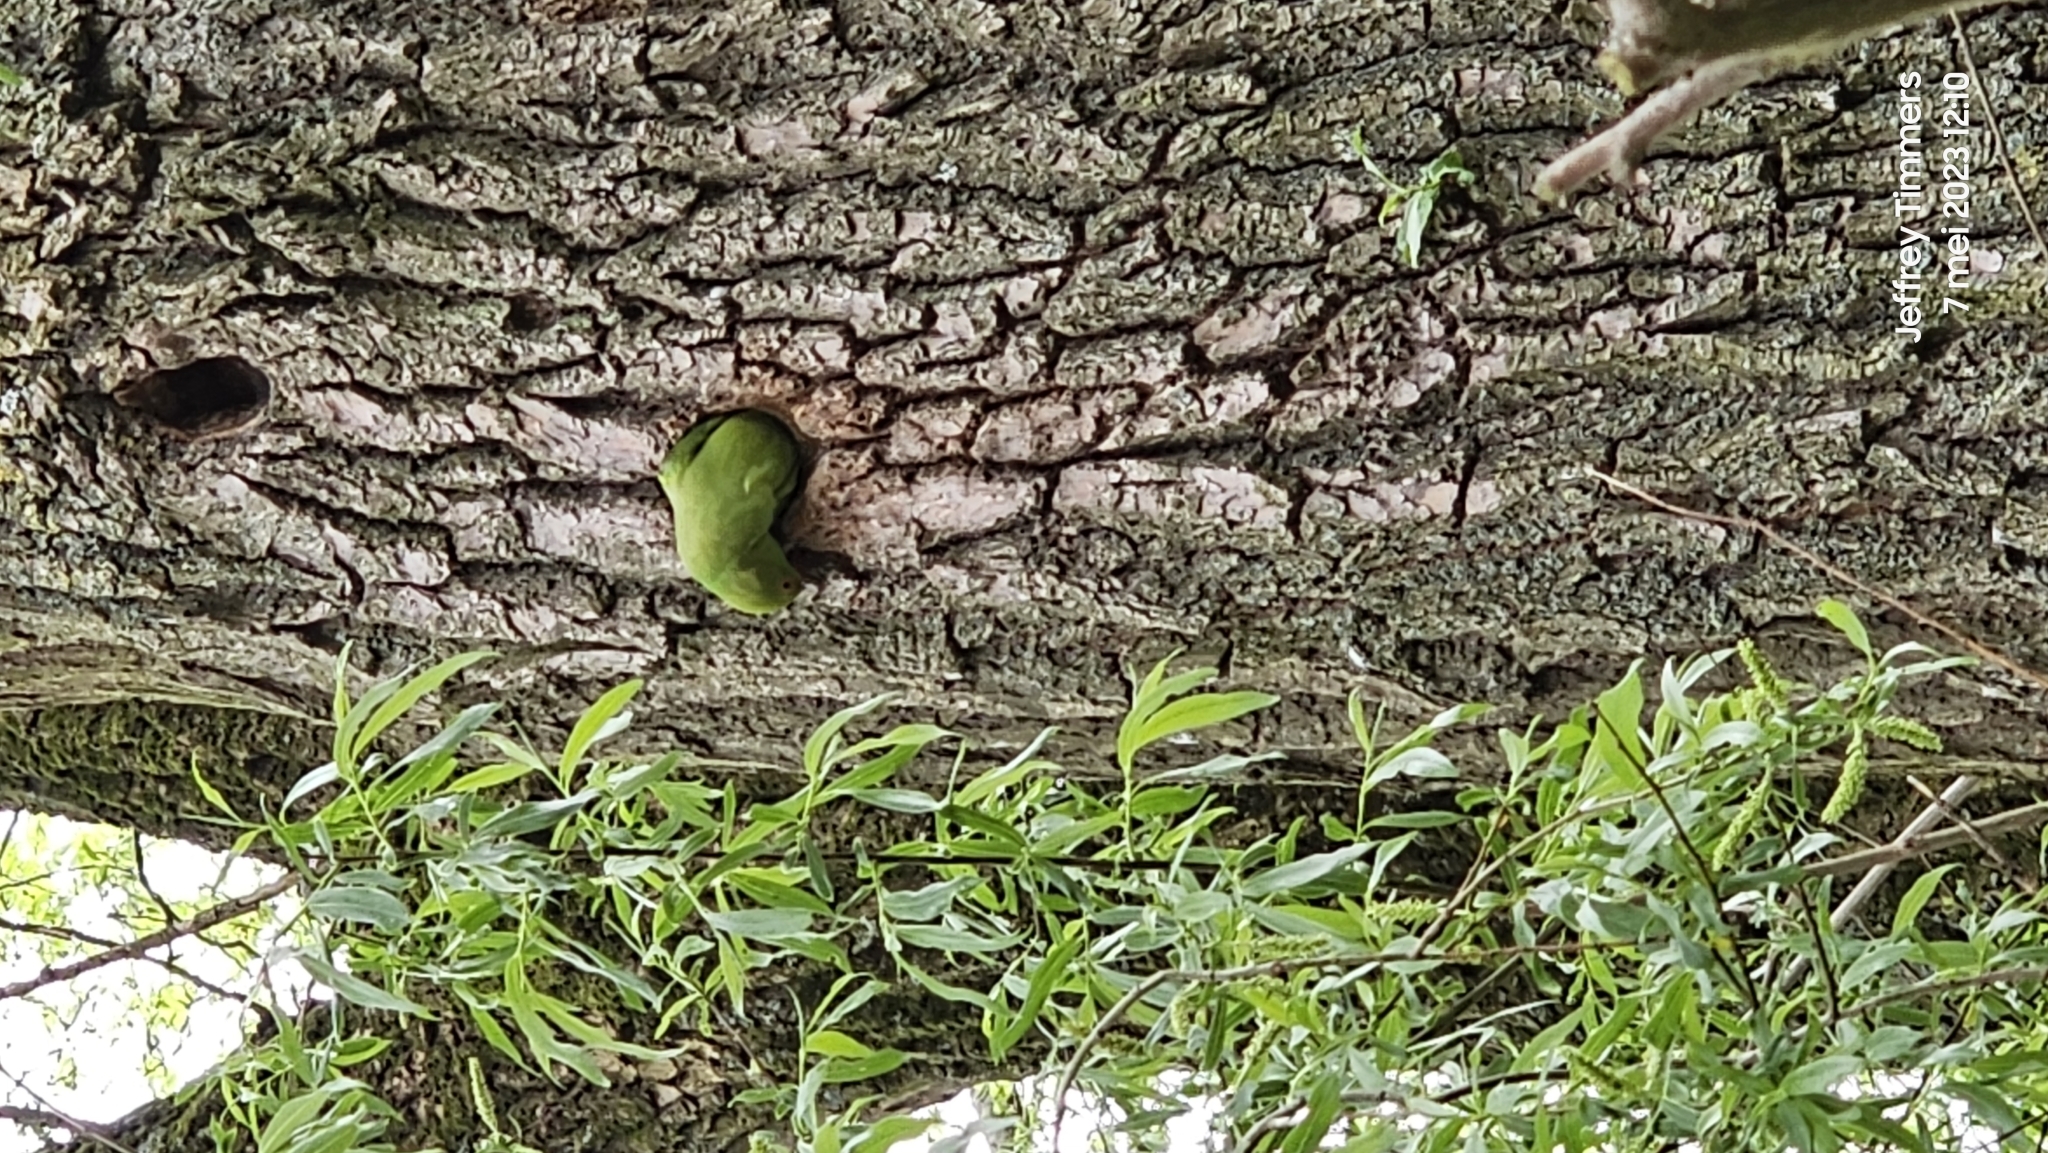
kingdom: Animalia
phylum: Chordata
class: Aves
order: Psittaciformes
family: Psittacidae
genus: Psittacula
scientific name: Psittacula krameri
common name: Rose-ringed parakeet
